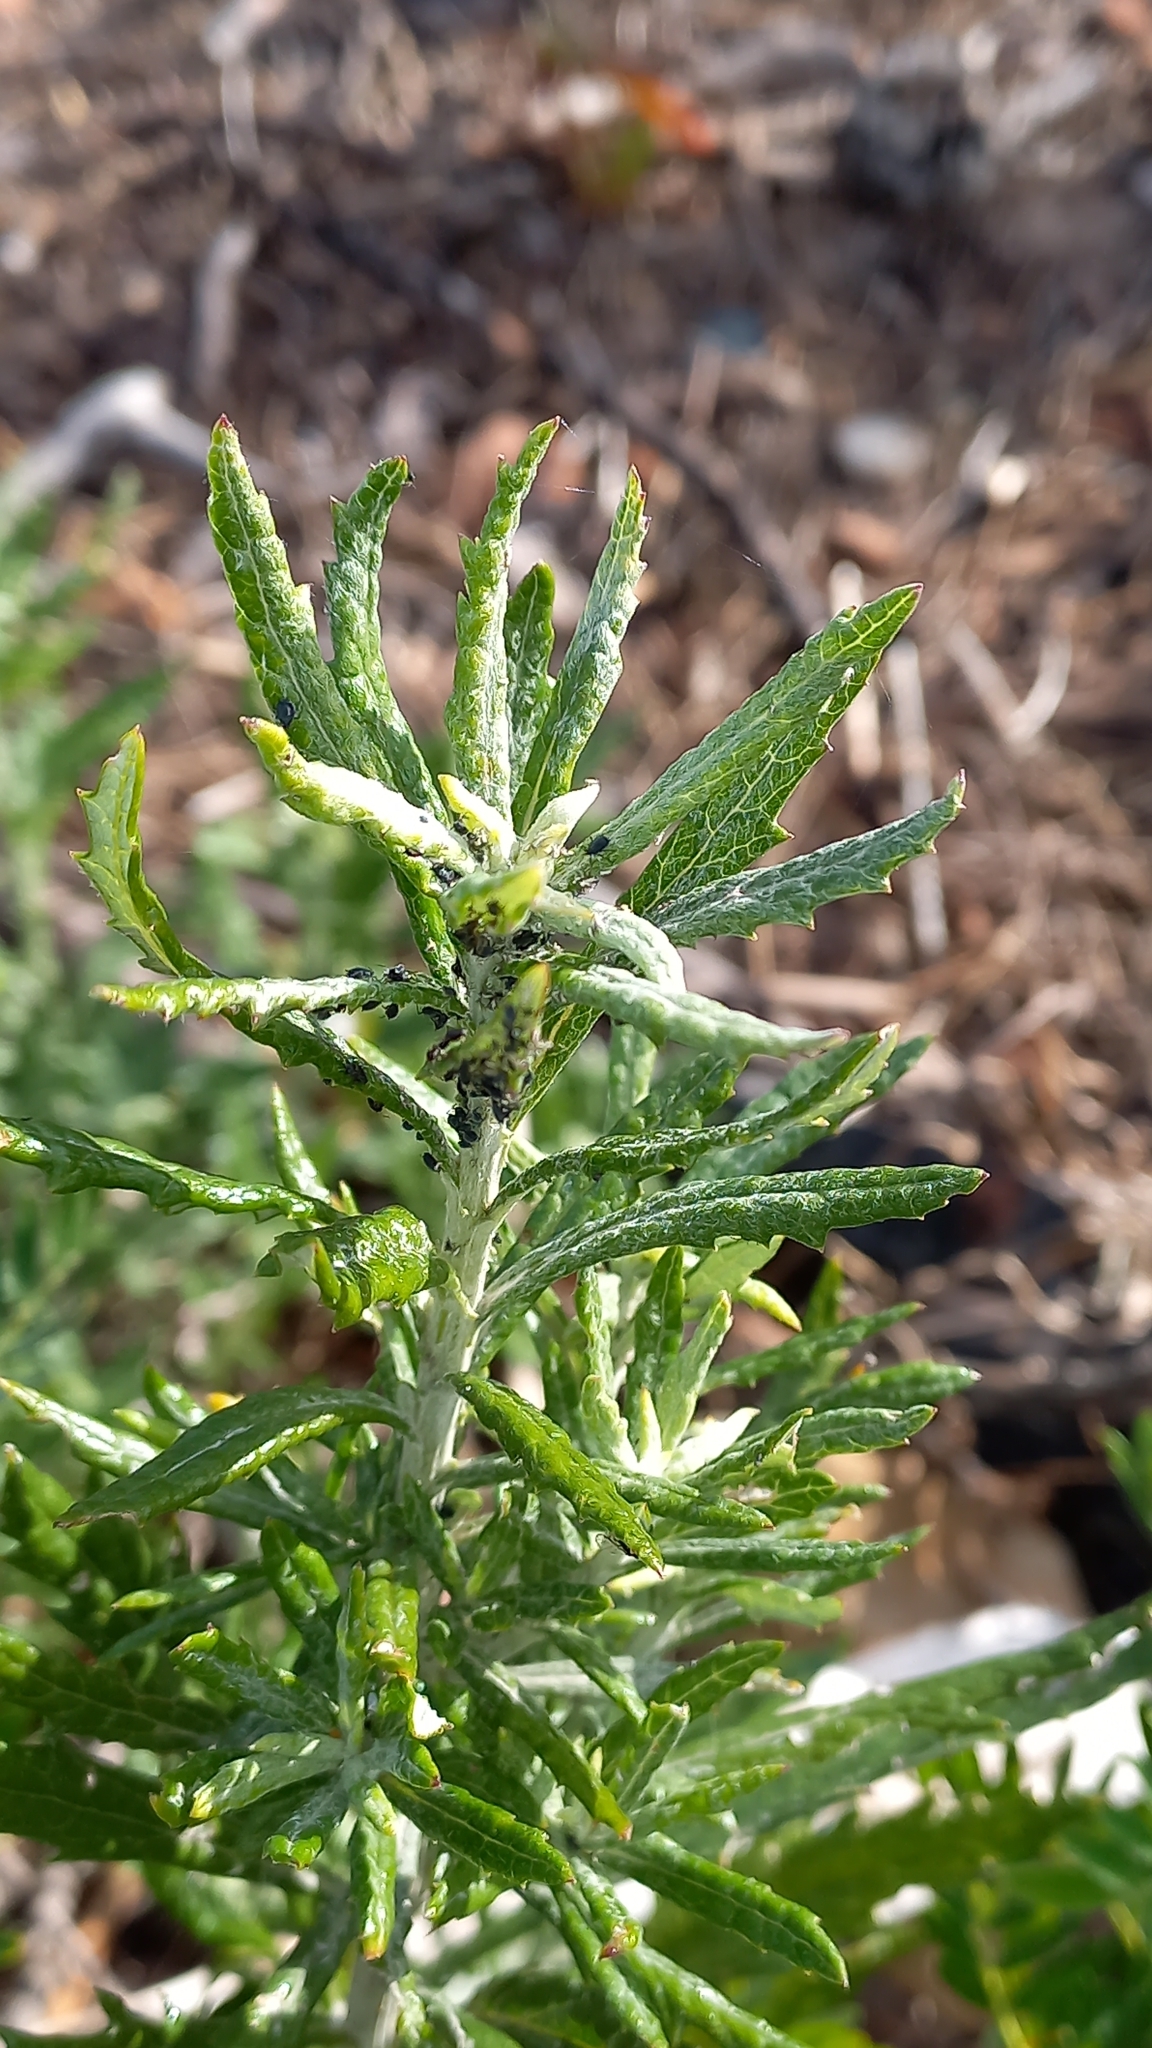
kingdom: Plantae
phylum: Tracheophyta
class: Magnoliopsida
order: Asterales
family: Asteraceae
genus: Senecio
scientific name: Senecio pterophorus
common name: Shoddy ragwort
